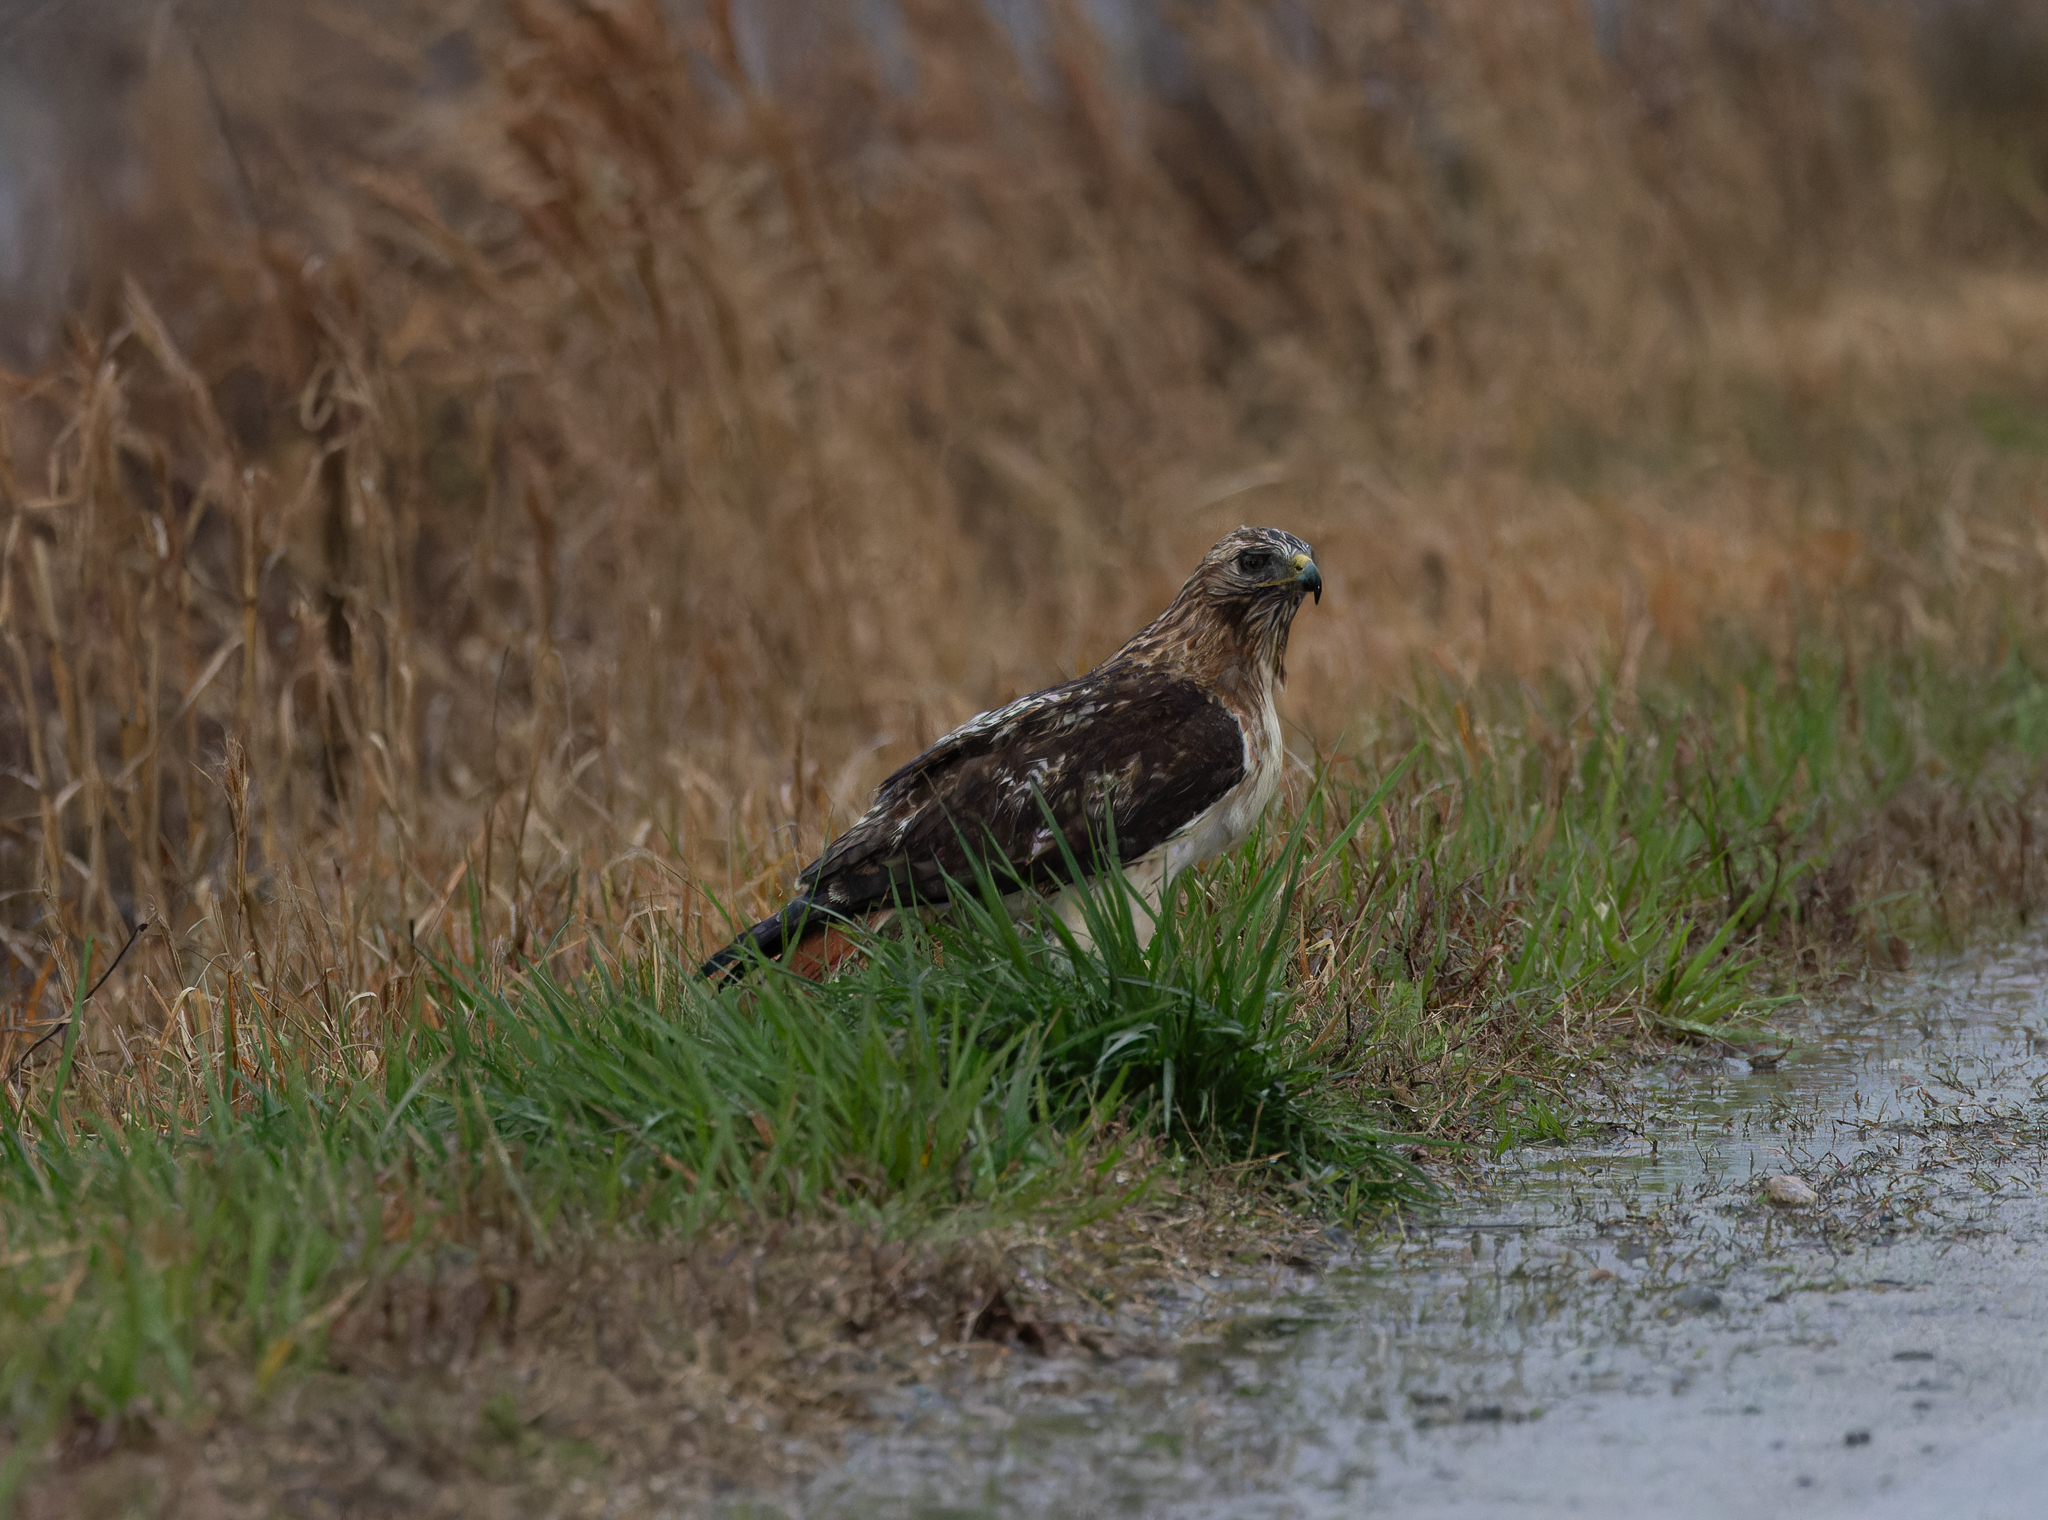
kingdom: Animalia
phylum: Chordata
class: Aves
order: Accipitriformes
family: Accipitridae
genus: Buteo
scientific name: Buteo jamaicensis
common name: Red-tailed hawk
